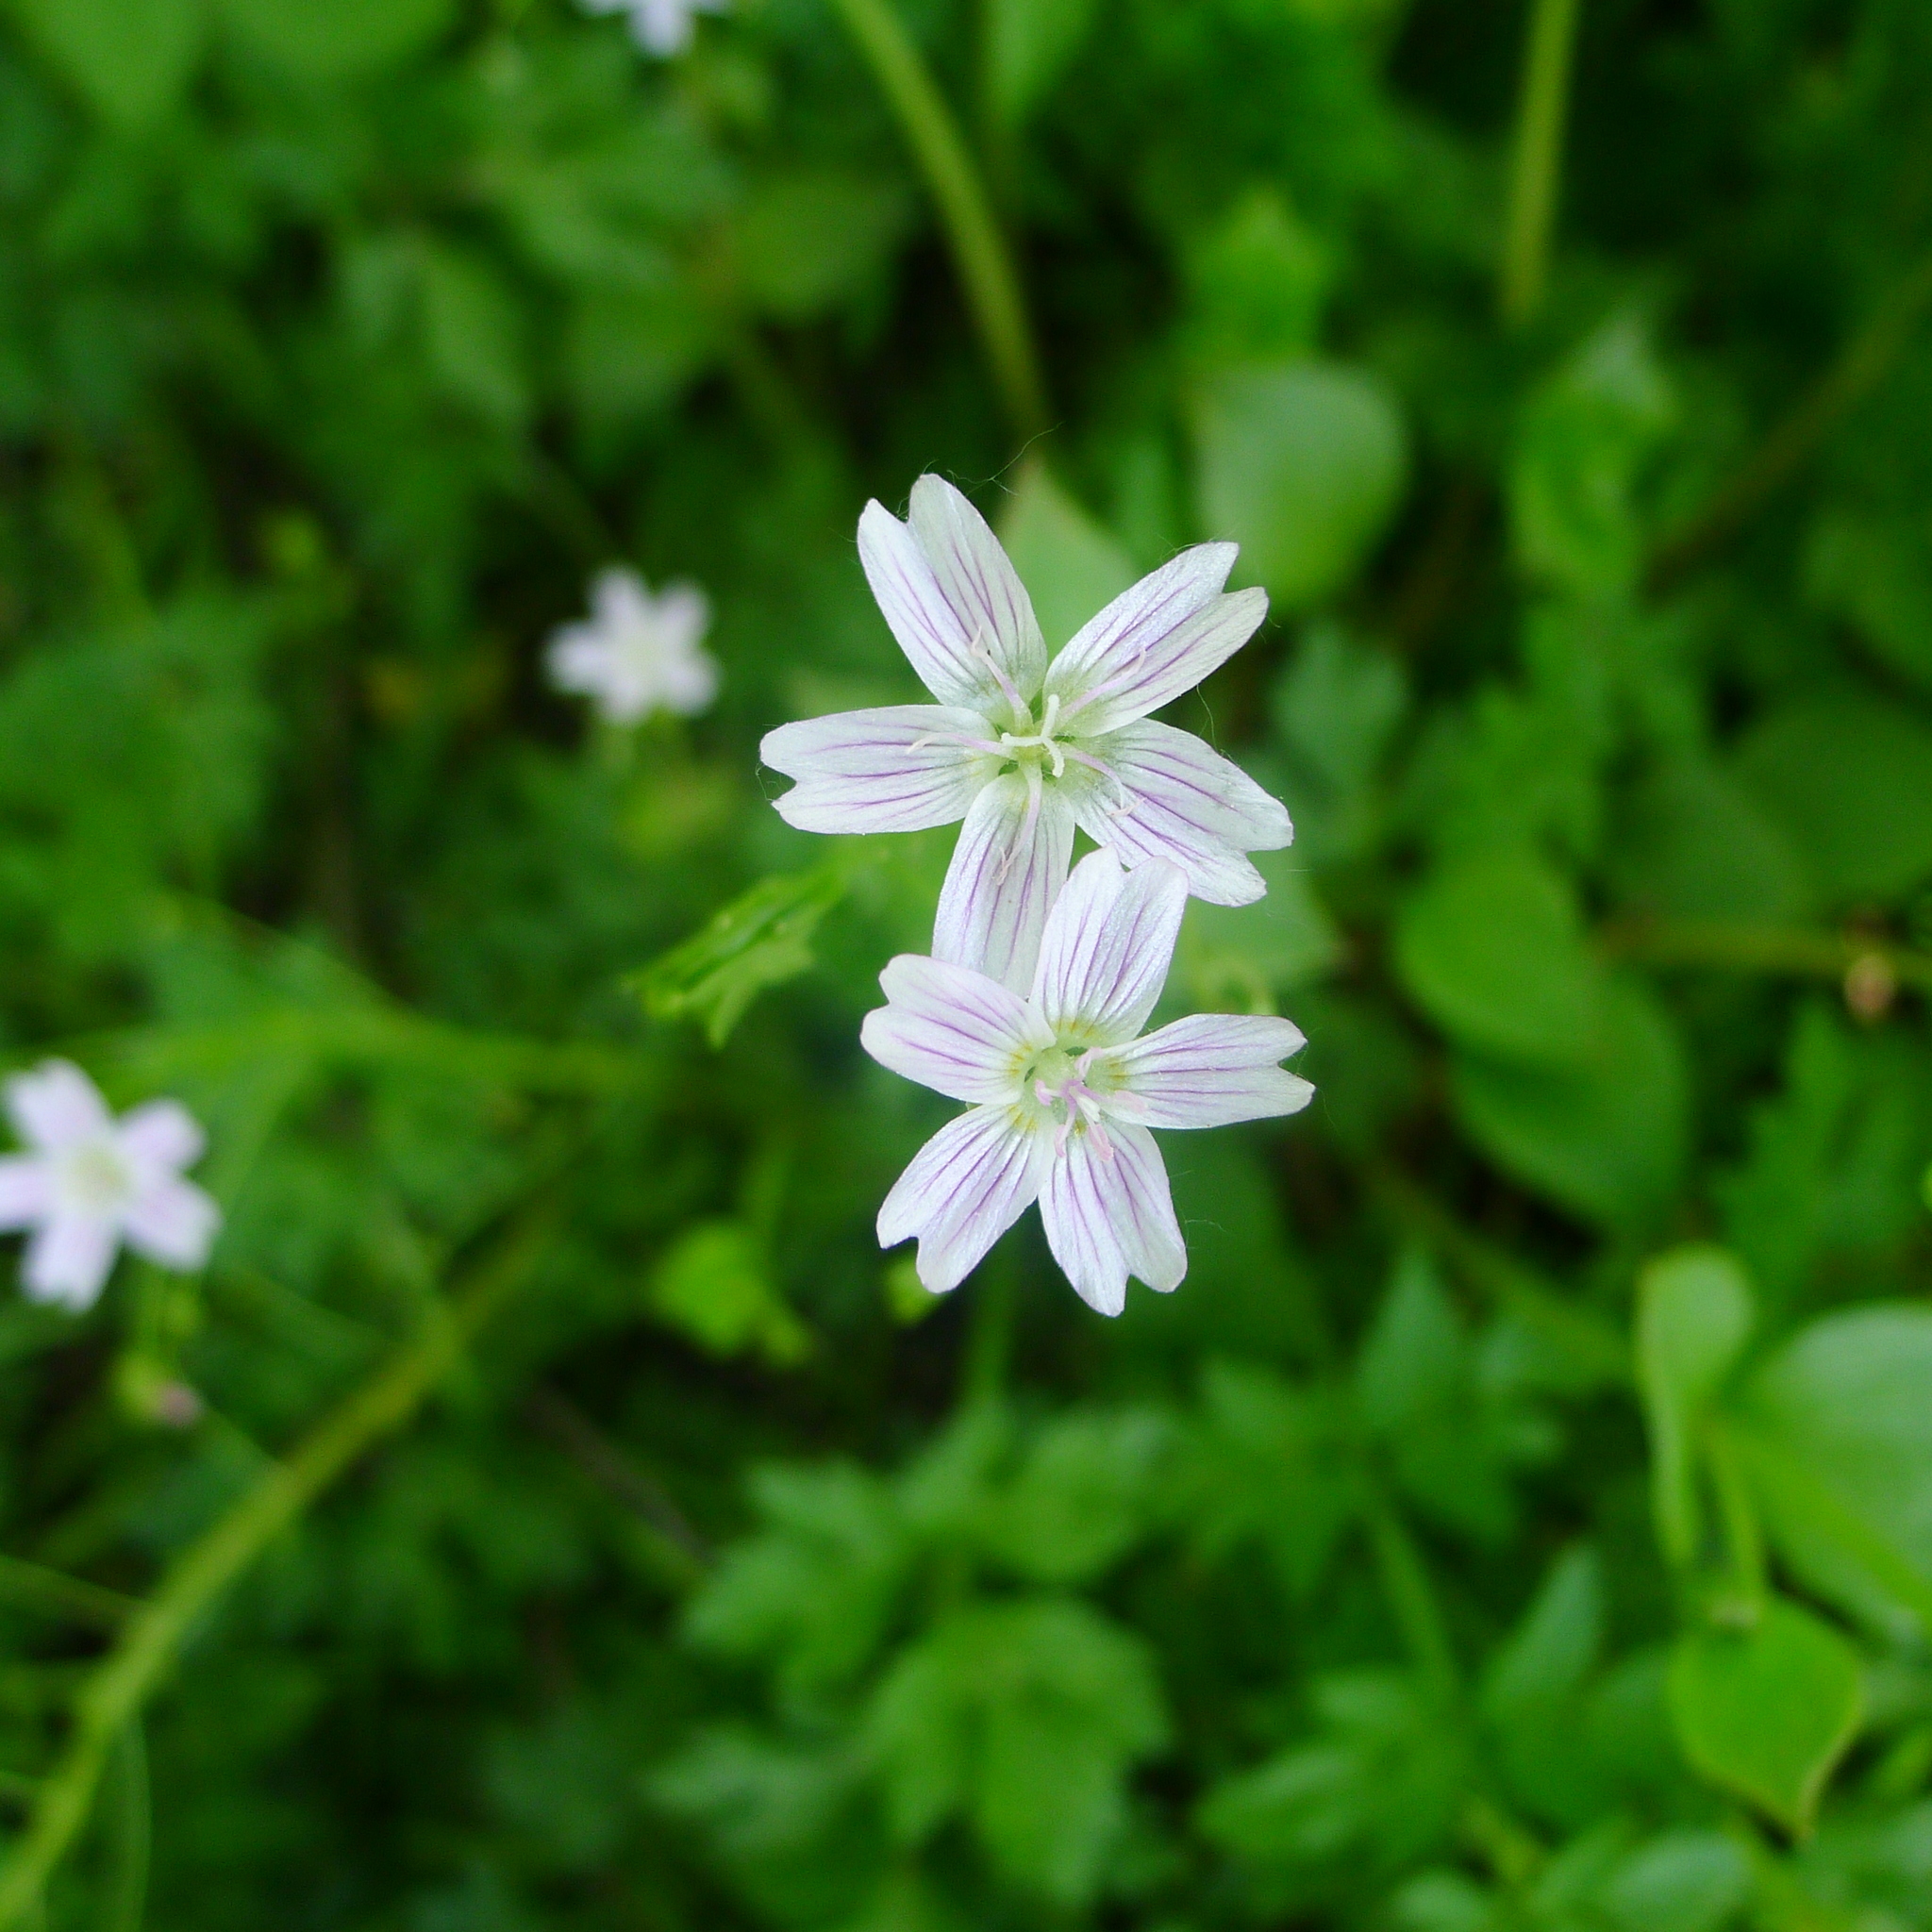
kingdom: Plantae
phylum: Tracheophyta
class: Magnoliopsida
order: Caryophyllales
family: Montiaceae
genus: Claytonia
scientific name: Claytonia sibirica
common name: Pink purslane
